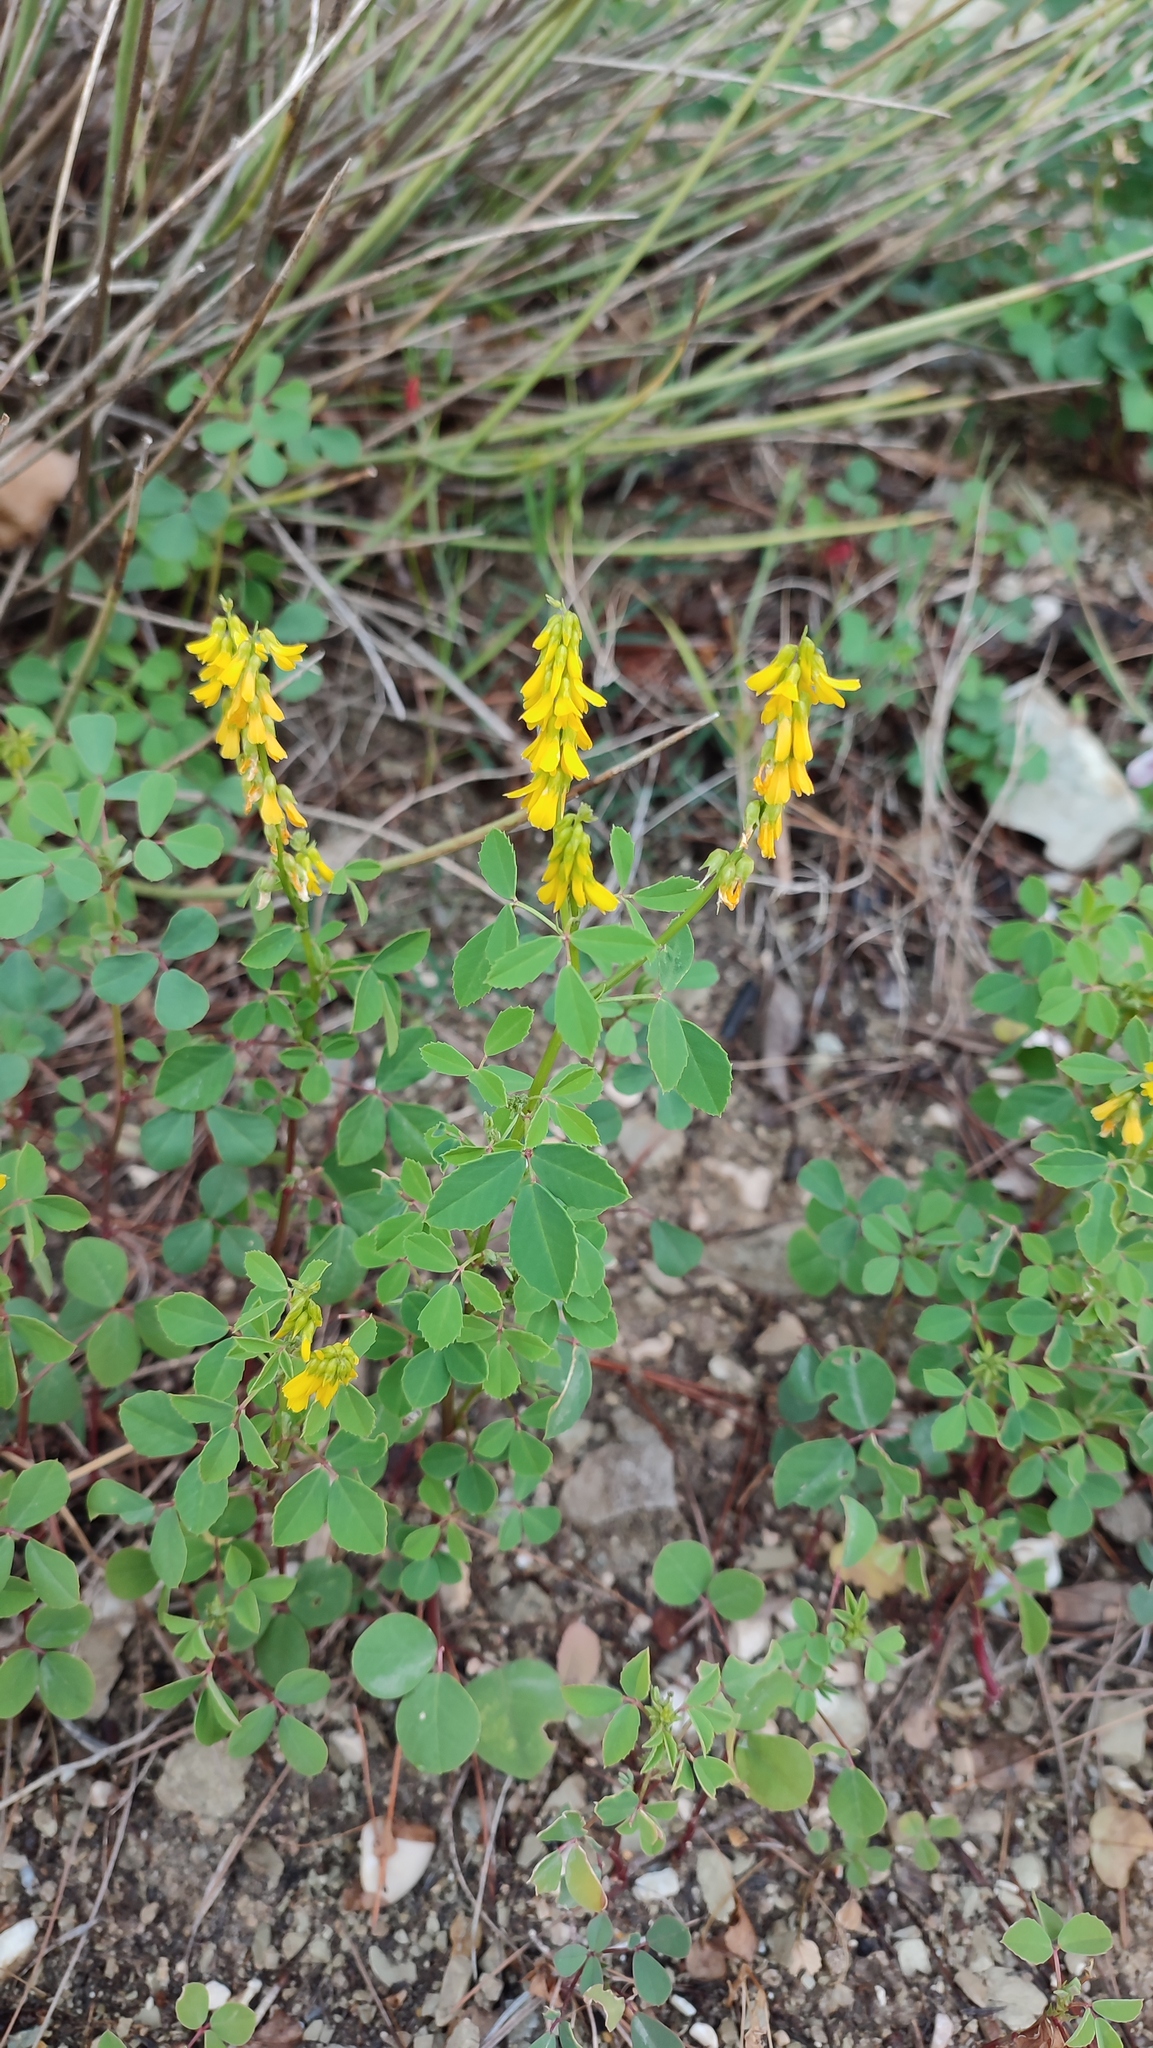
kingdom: Plantae
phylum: Tracheophyta
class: Magnoliopsida
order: Fabales
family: Fabaceae
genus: Melilotus
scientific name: Melilotus officinalis
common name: Sweetclover
